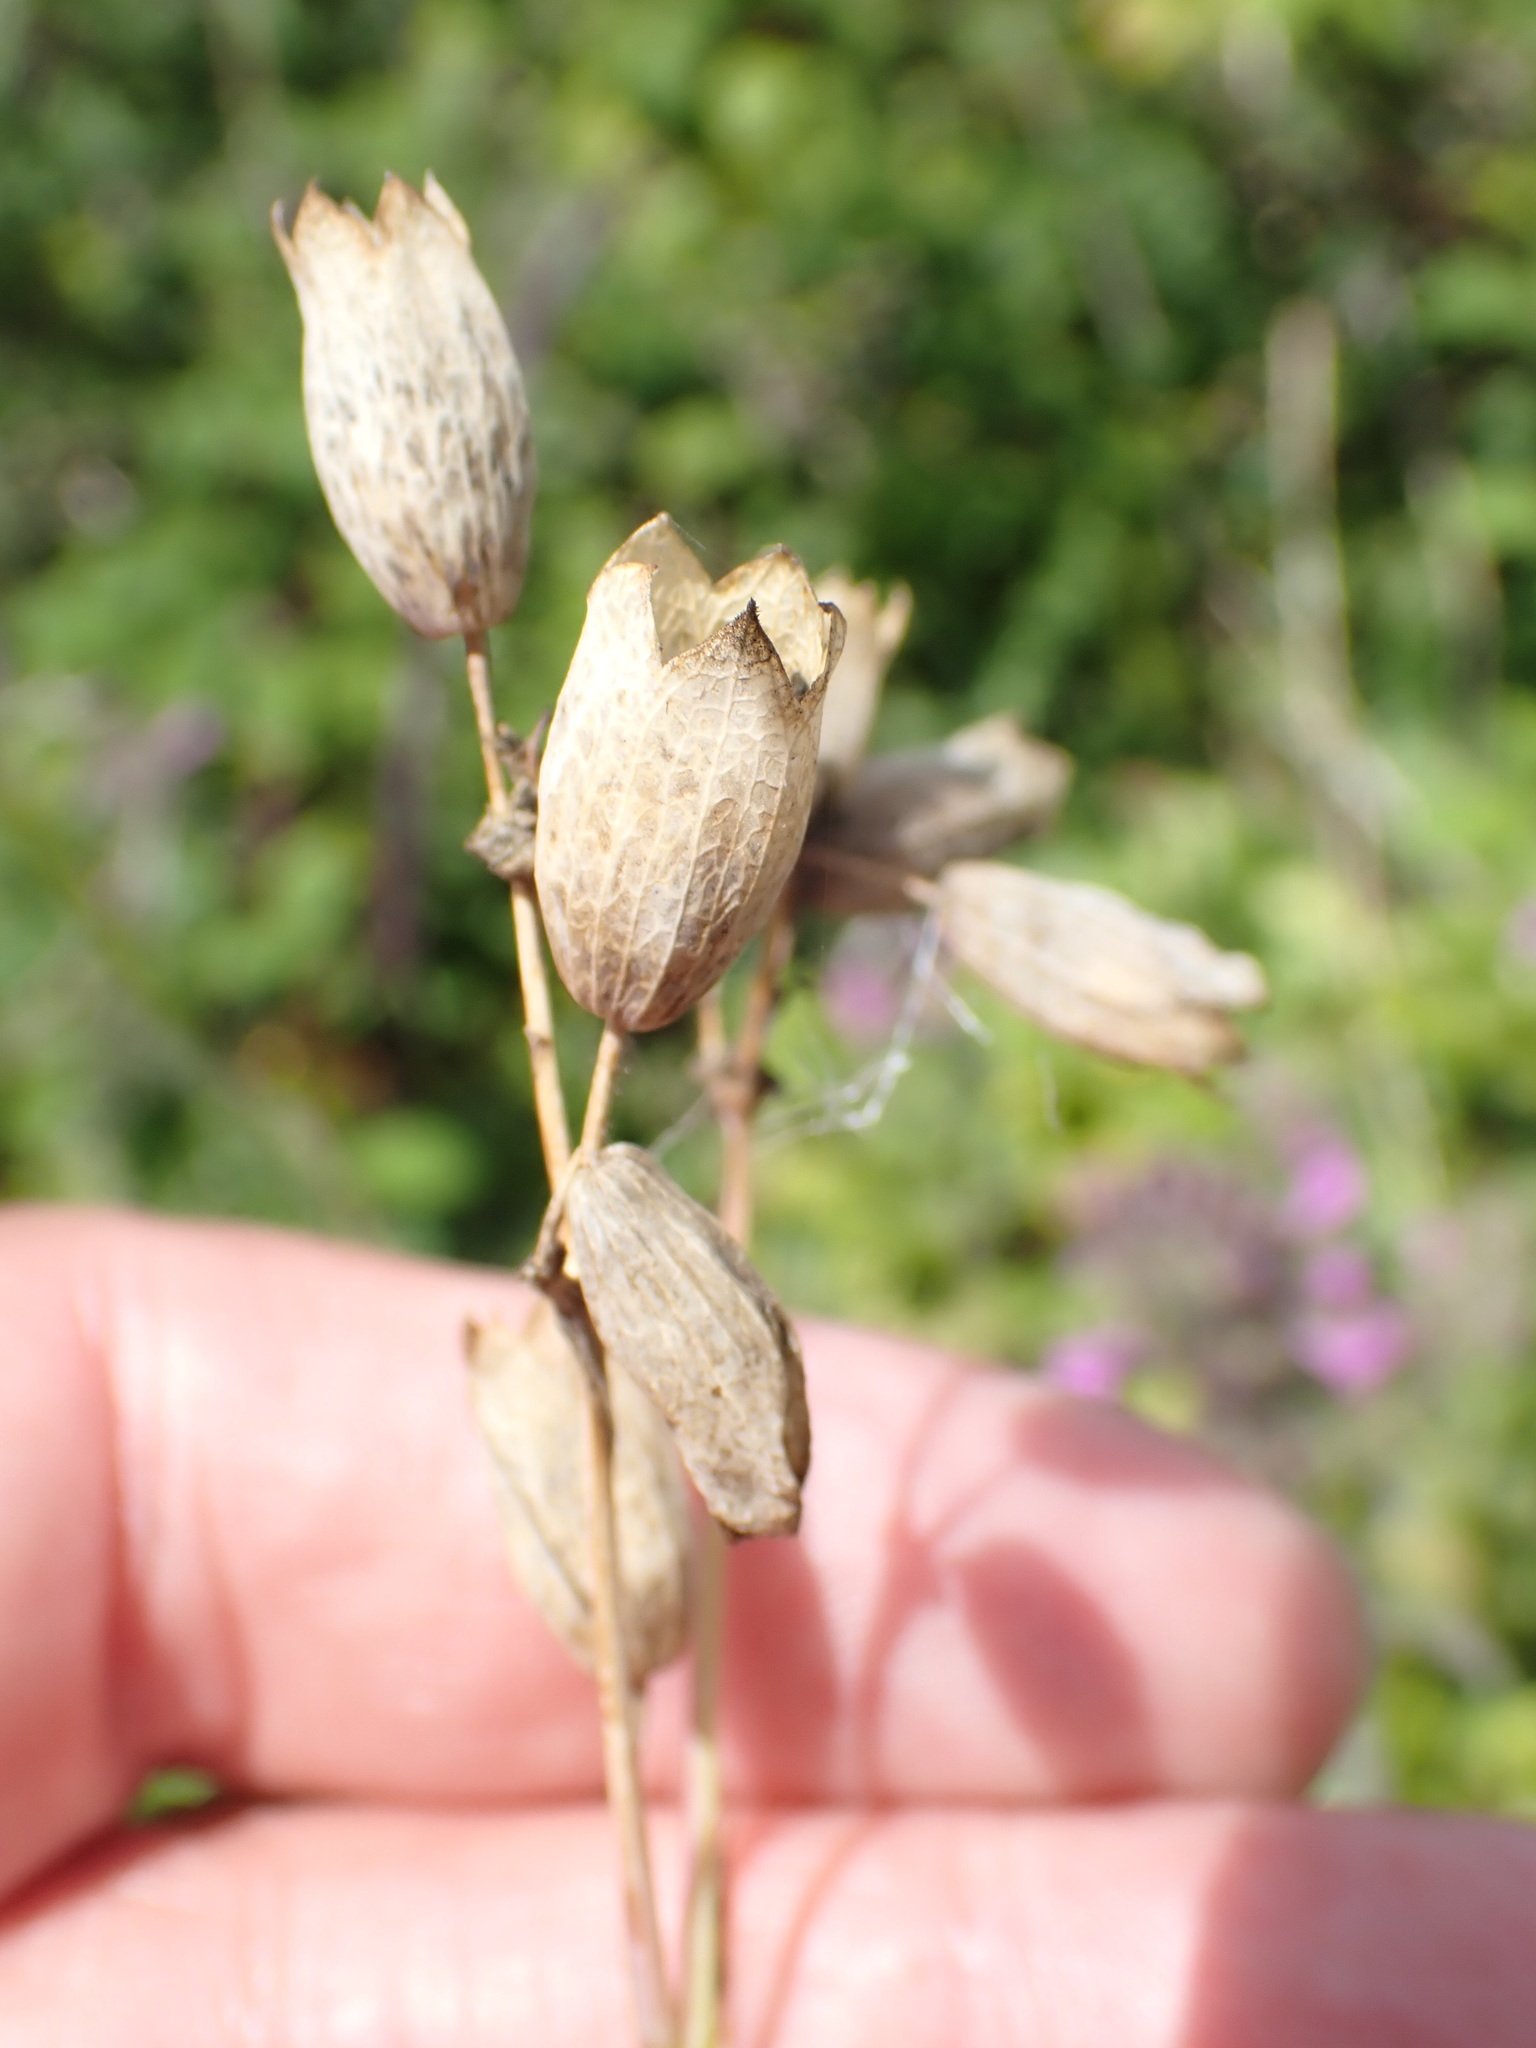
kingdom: Plantae
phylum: Tracheophyta
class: Magnoliopsida
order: Caryophyllales
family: Caryophyllaceae
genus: Silene
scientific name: Silene vulgaris
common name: Bladder campion
